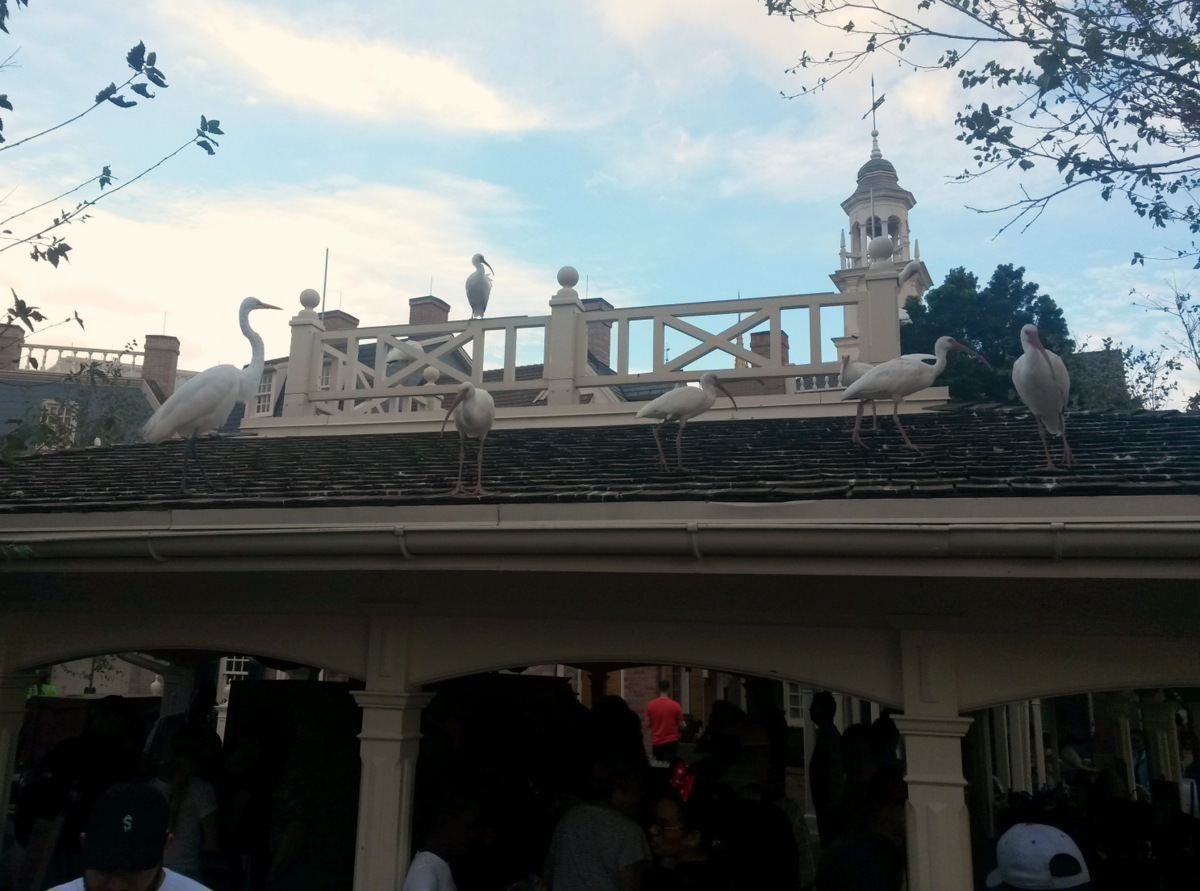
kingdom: Animalia
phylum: Chordata
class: Aves
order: Pelecaniformes
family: Ardeidae
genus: Ardea
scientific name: Ardea alba
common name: Great egret
